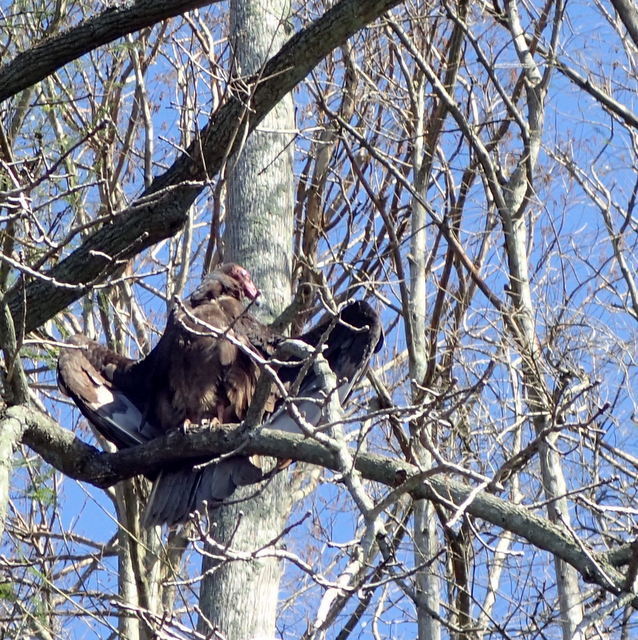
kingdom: Animalia
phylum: Chordata
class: Aves
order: Accipitriformes
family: Cathartidae
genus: Cathartes
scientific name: Cathartes aura
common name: Turkey vulture
